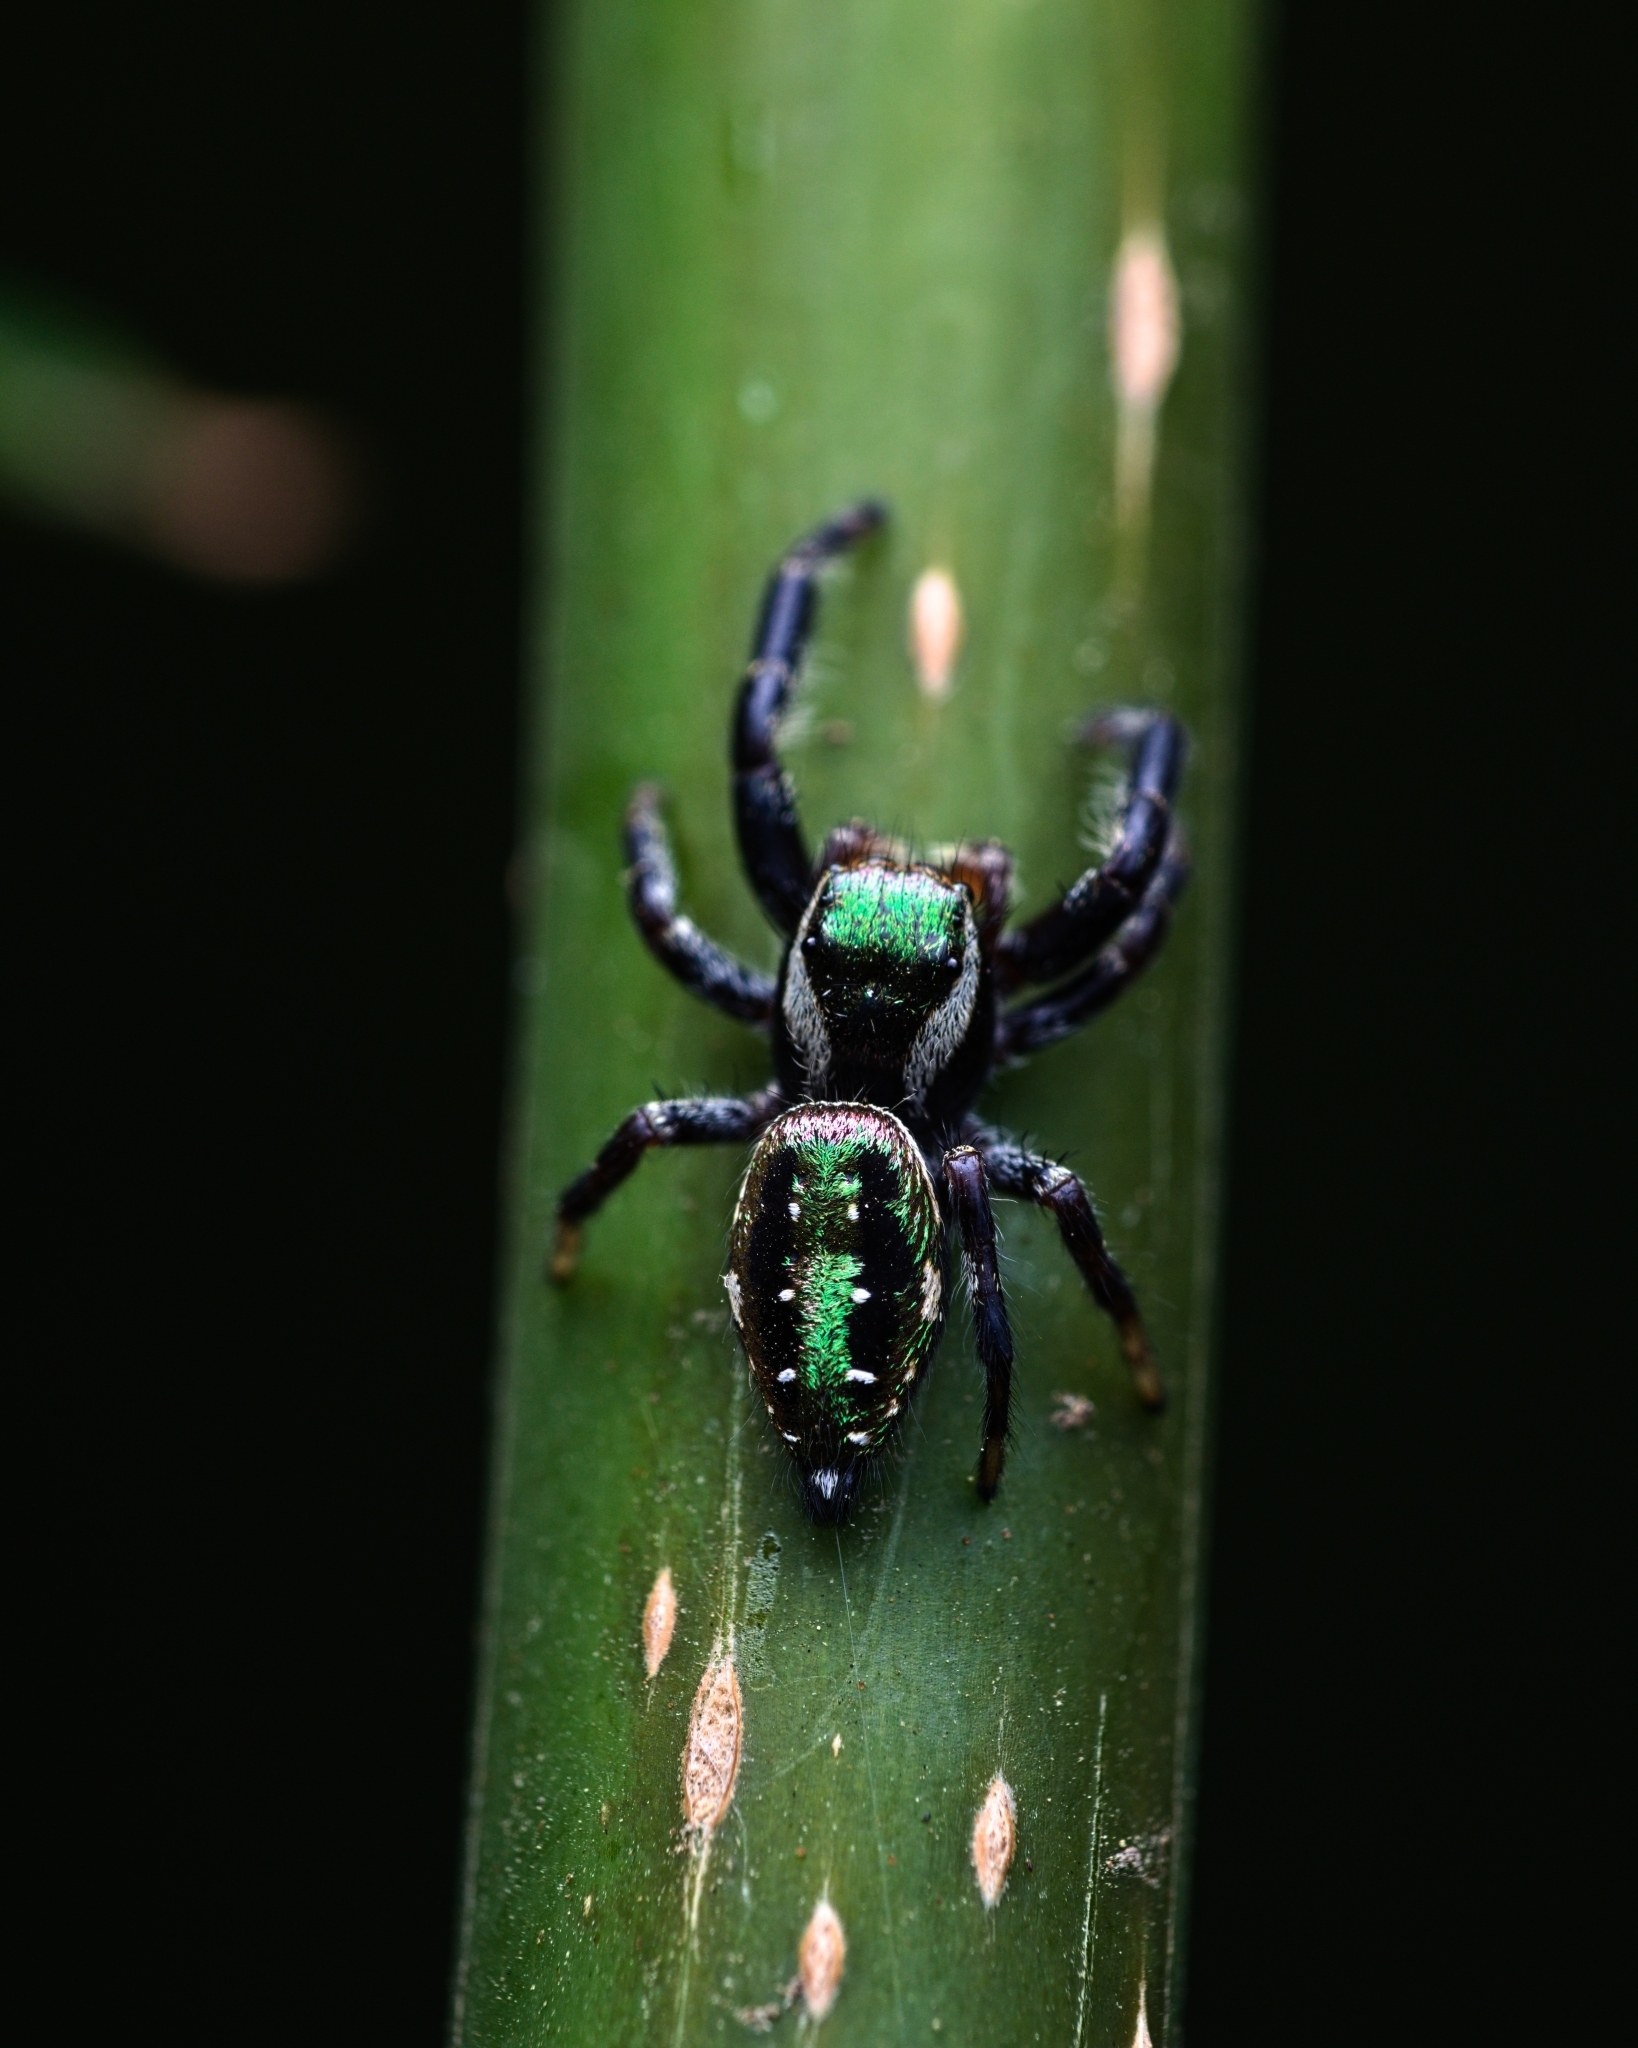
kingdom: Animalia
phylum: Arthropoda
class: Arachnida
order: Araneae
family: Salticidae
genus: Paraphidippus
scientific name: Paraphidippus aurantius
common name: Jumping spiders
